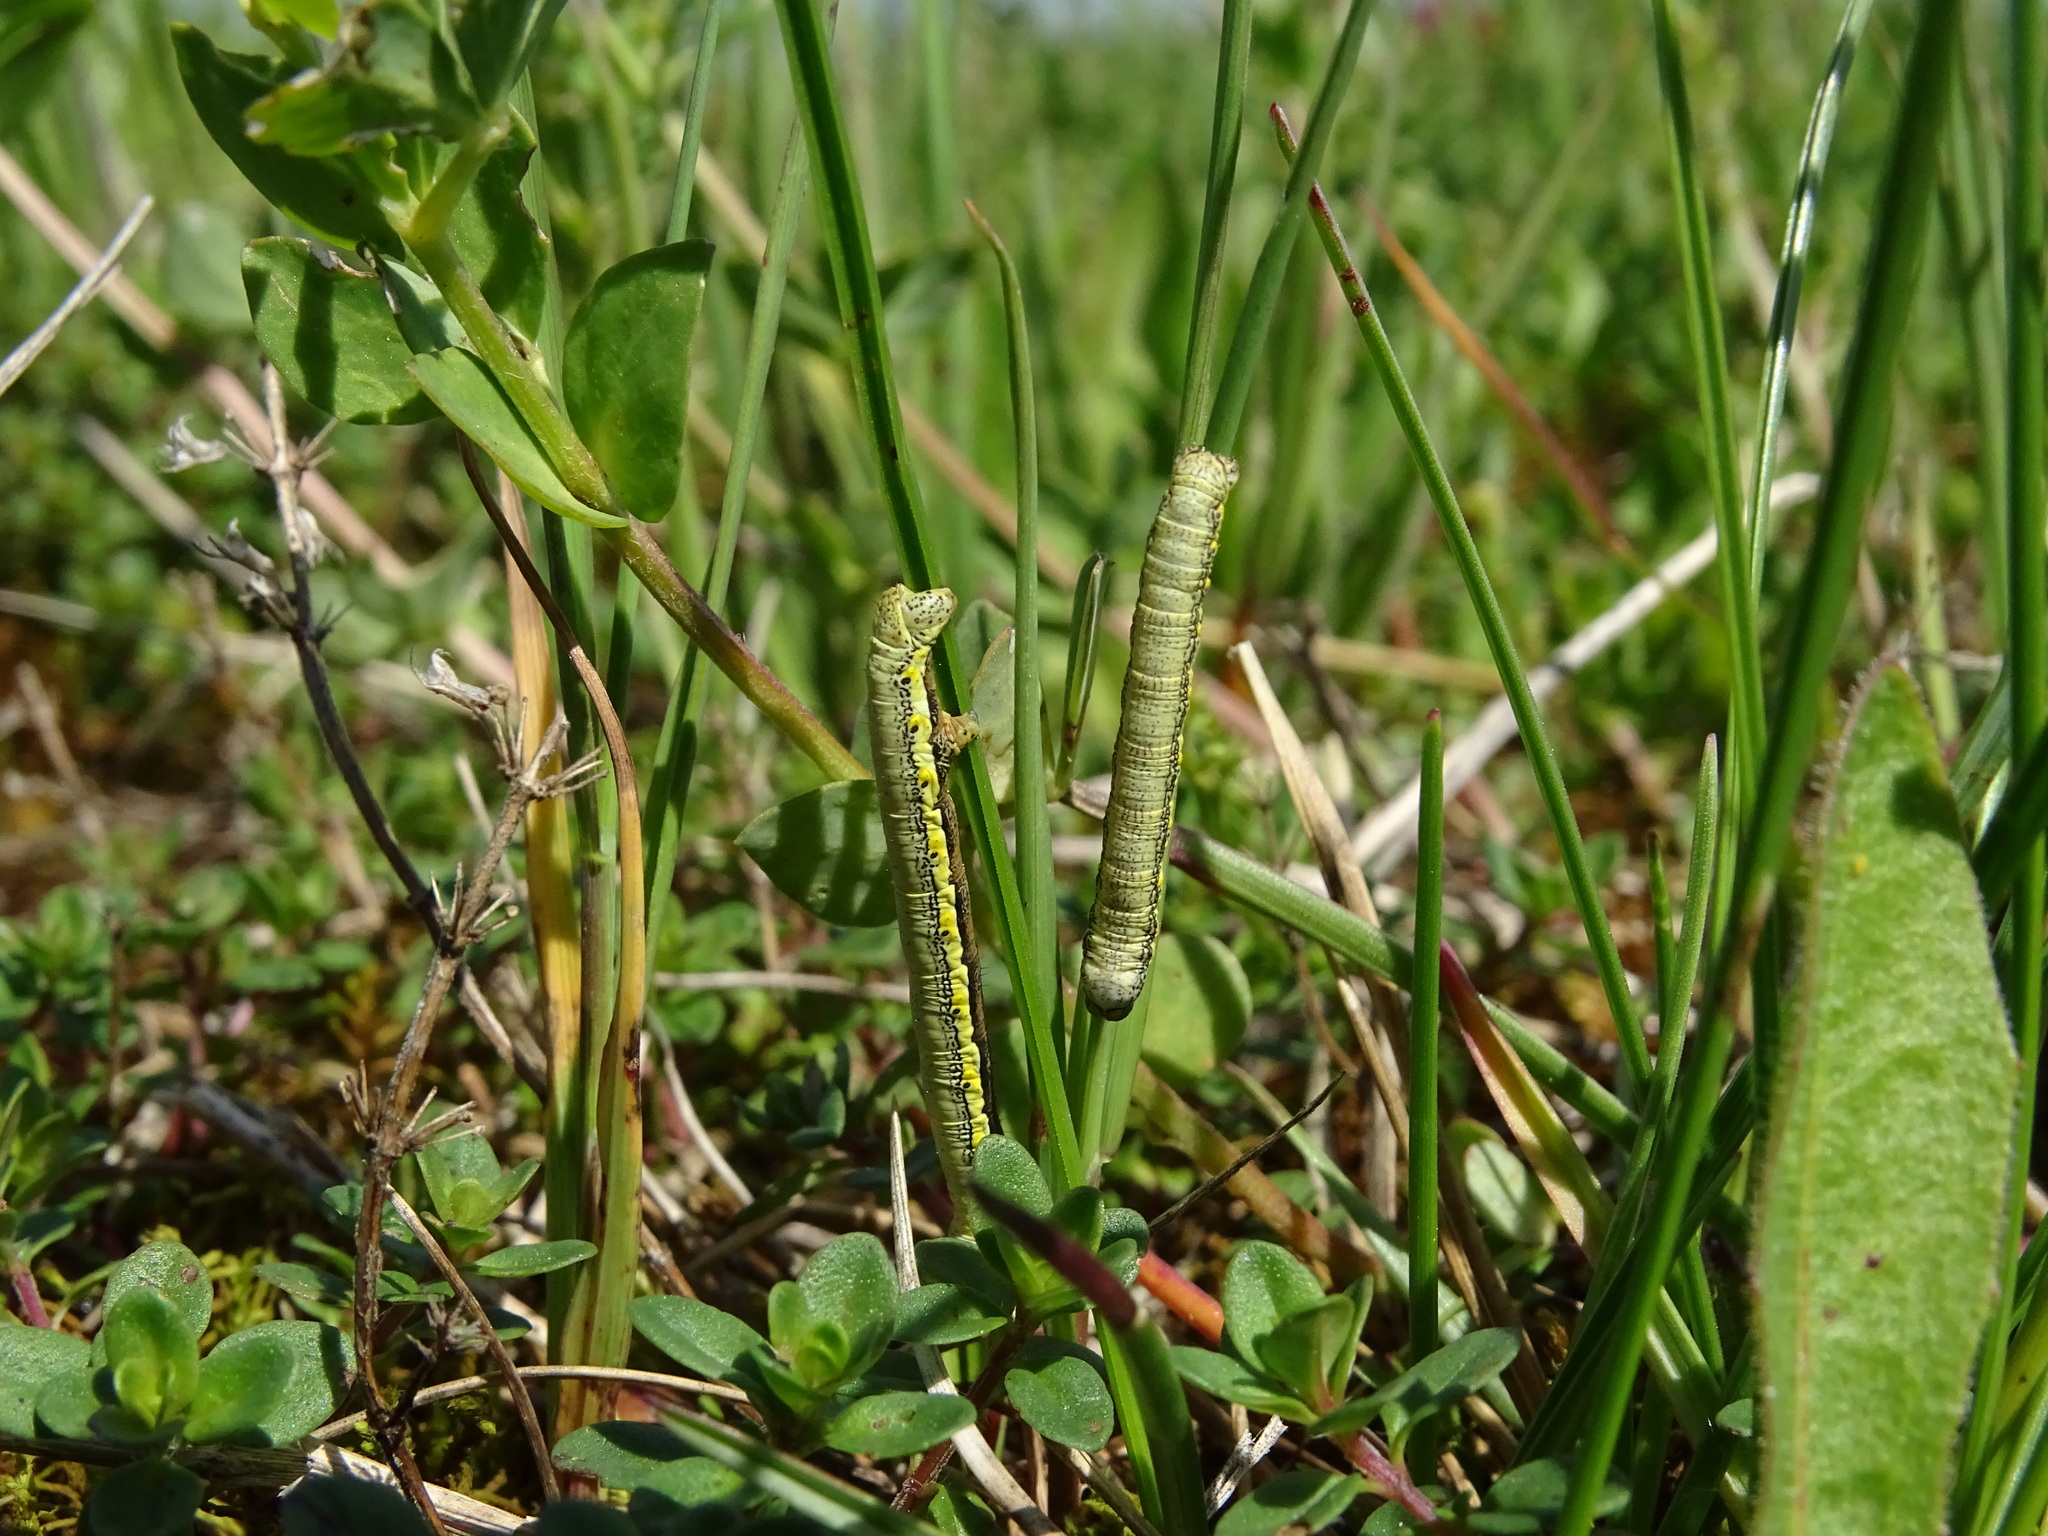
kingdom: Animalia
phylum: Arthropoda
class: Insecta
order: Lepidoptera
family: Geometridae
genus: Lycia
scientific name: Lycia zonaria
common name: Belted beauty
